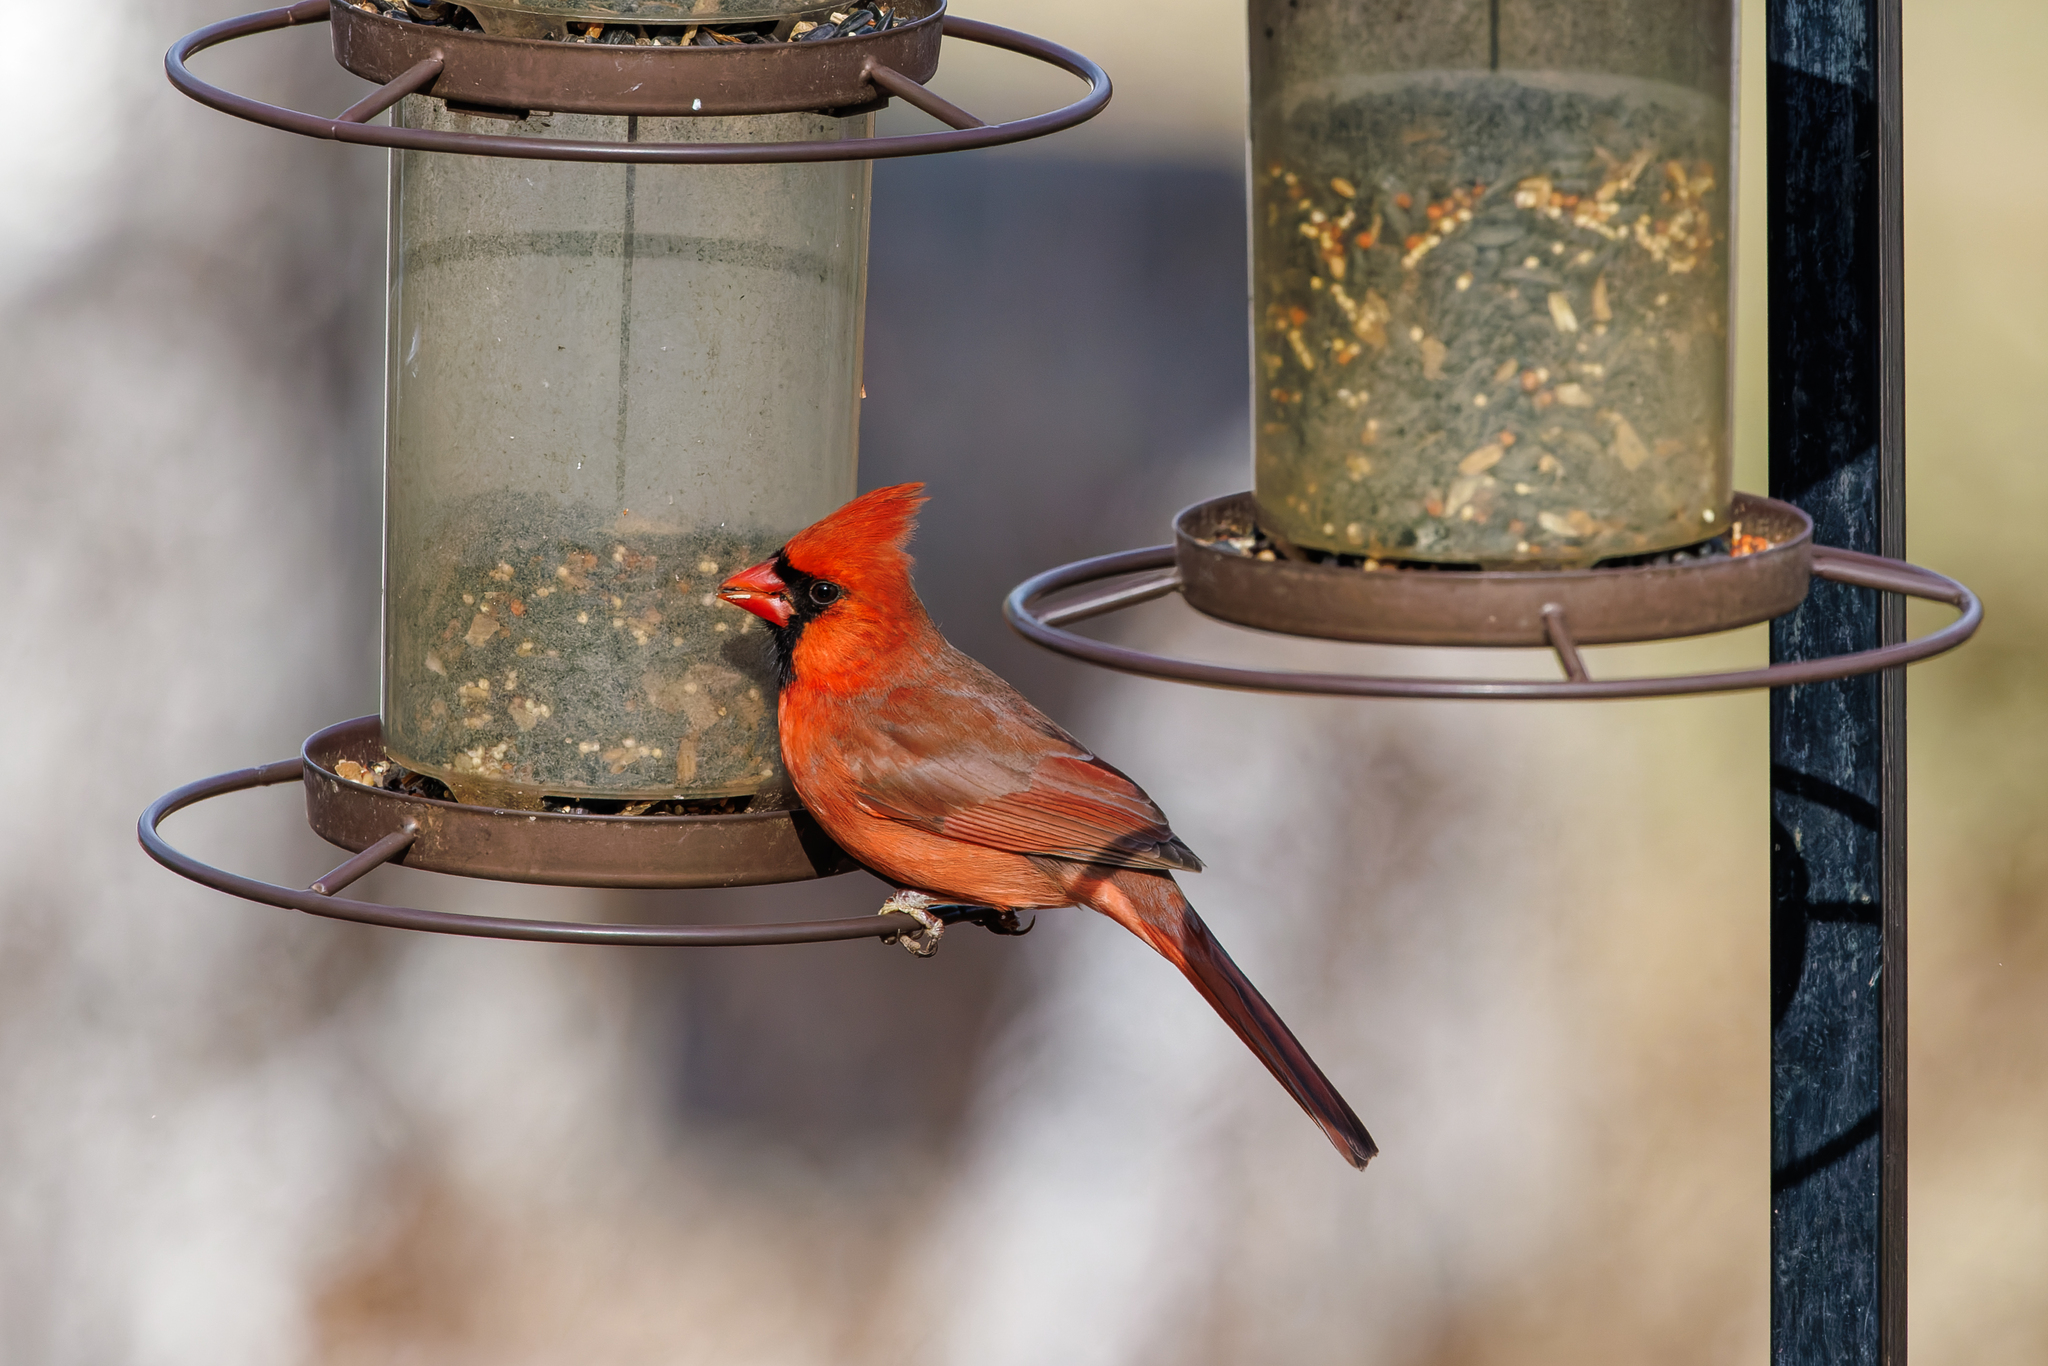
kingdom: Animalia
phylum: Chordata
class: Aves
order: Passeriformes
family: Cardinalidae
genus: Cardinalis
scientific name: Cardinalis cardinalis
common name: Northern cardinal
